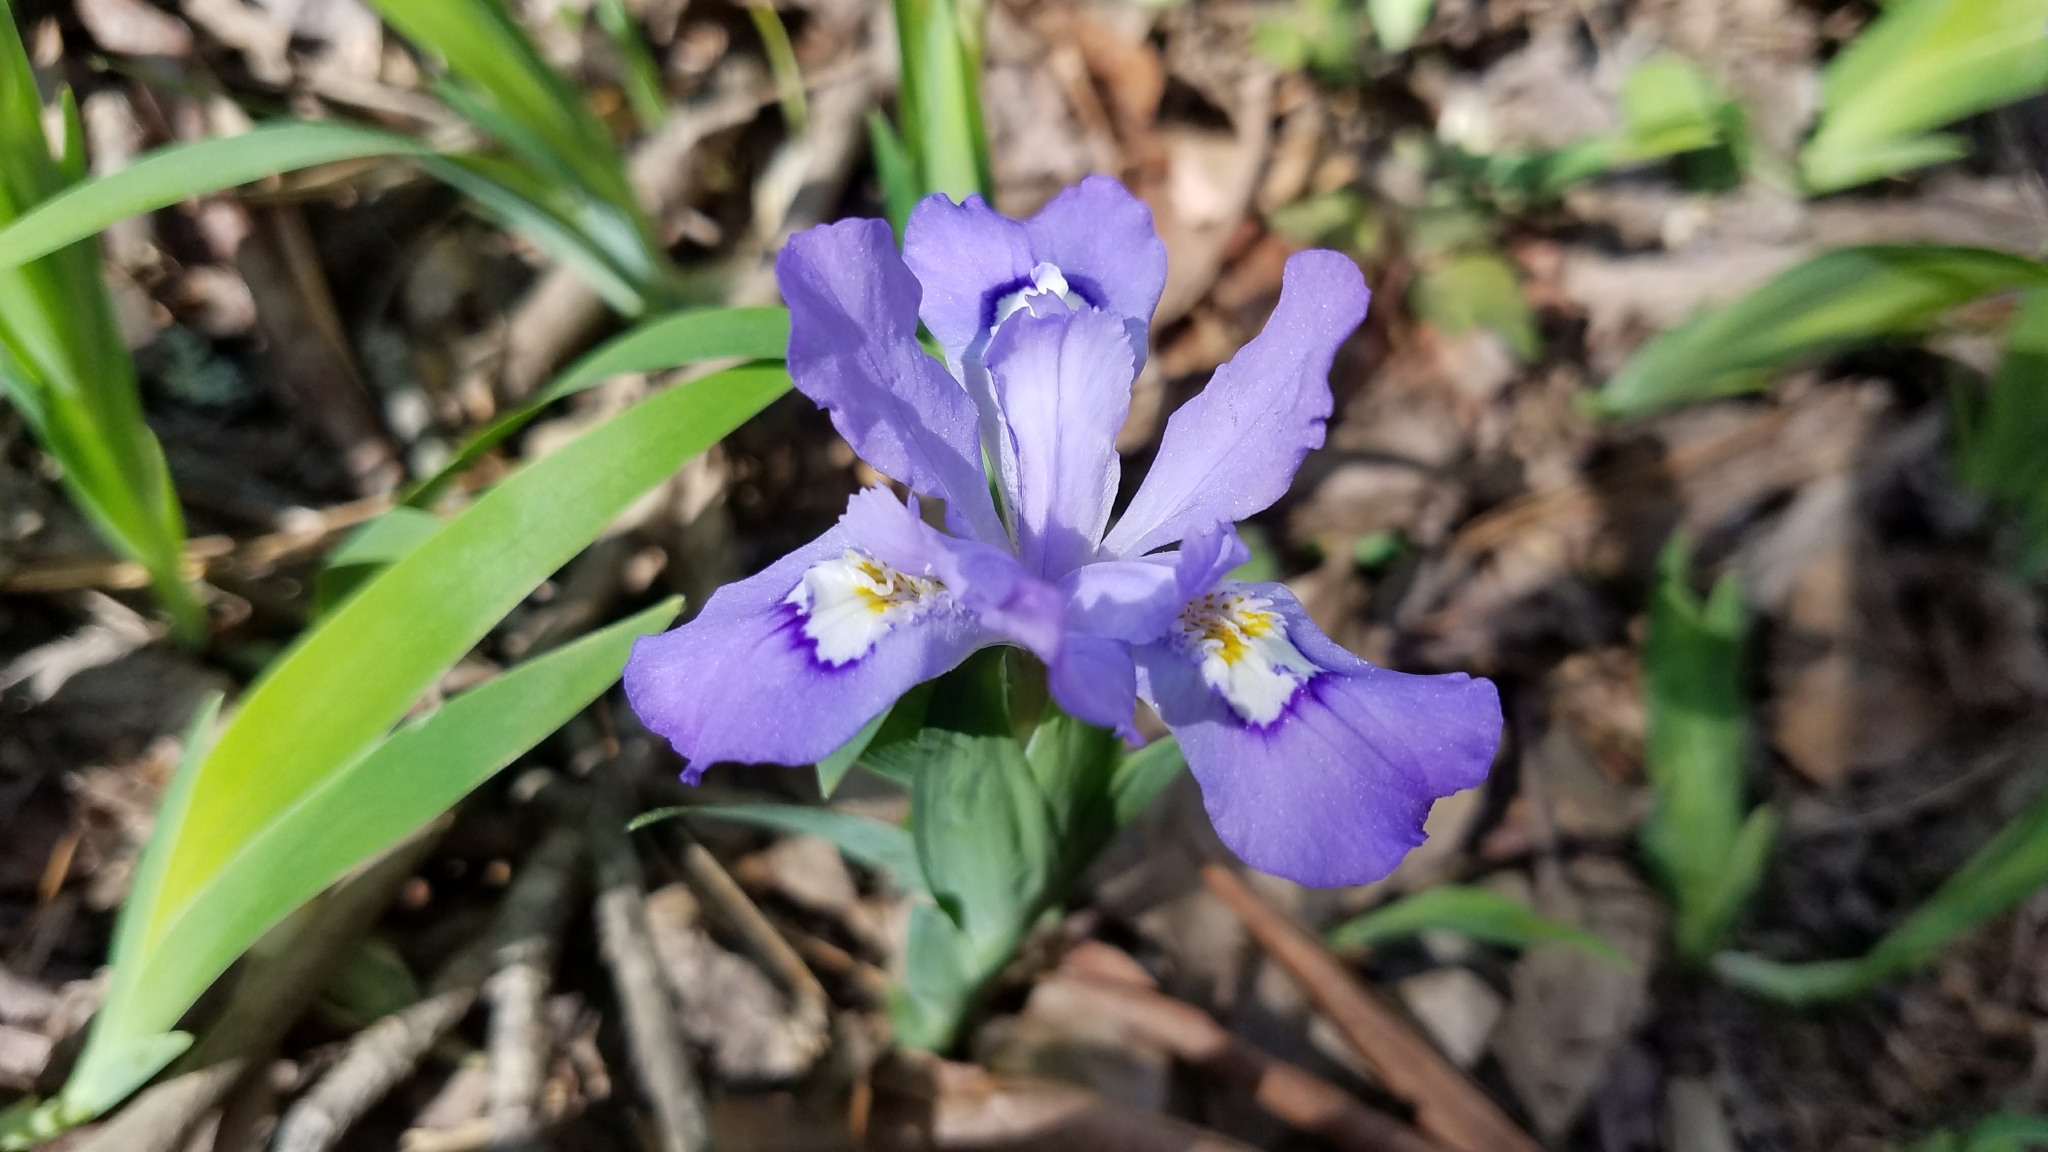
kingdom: Plantae
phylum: Tracheophyta
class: Liliopsida
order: Asparagales
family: Iridaceae
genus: Iris
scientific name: Iris cristata
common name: Crested iris
